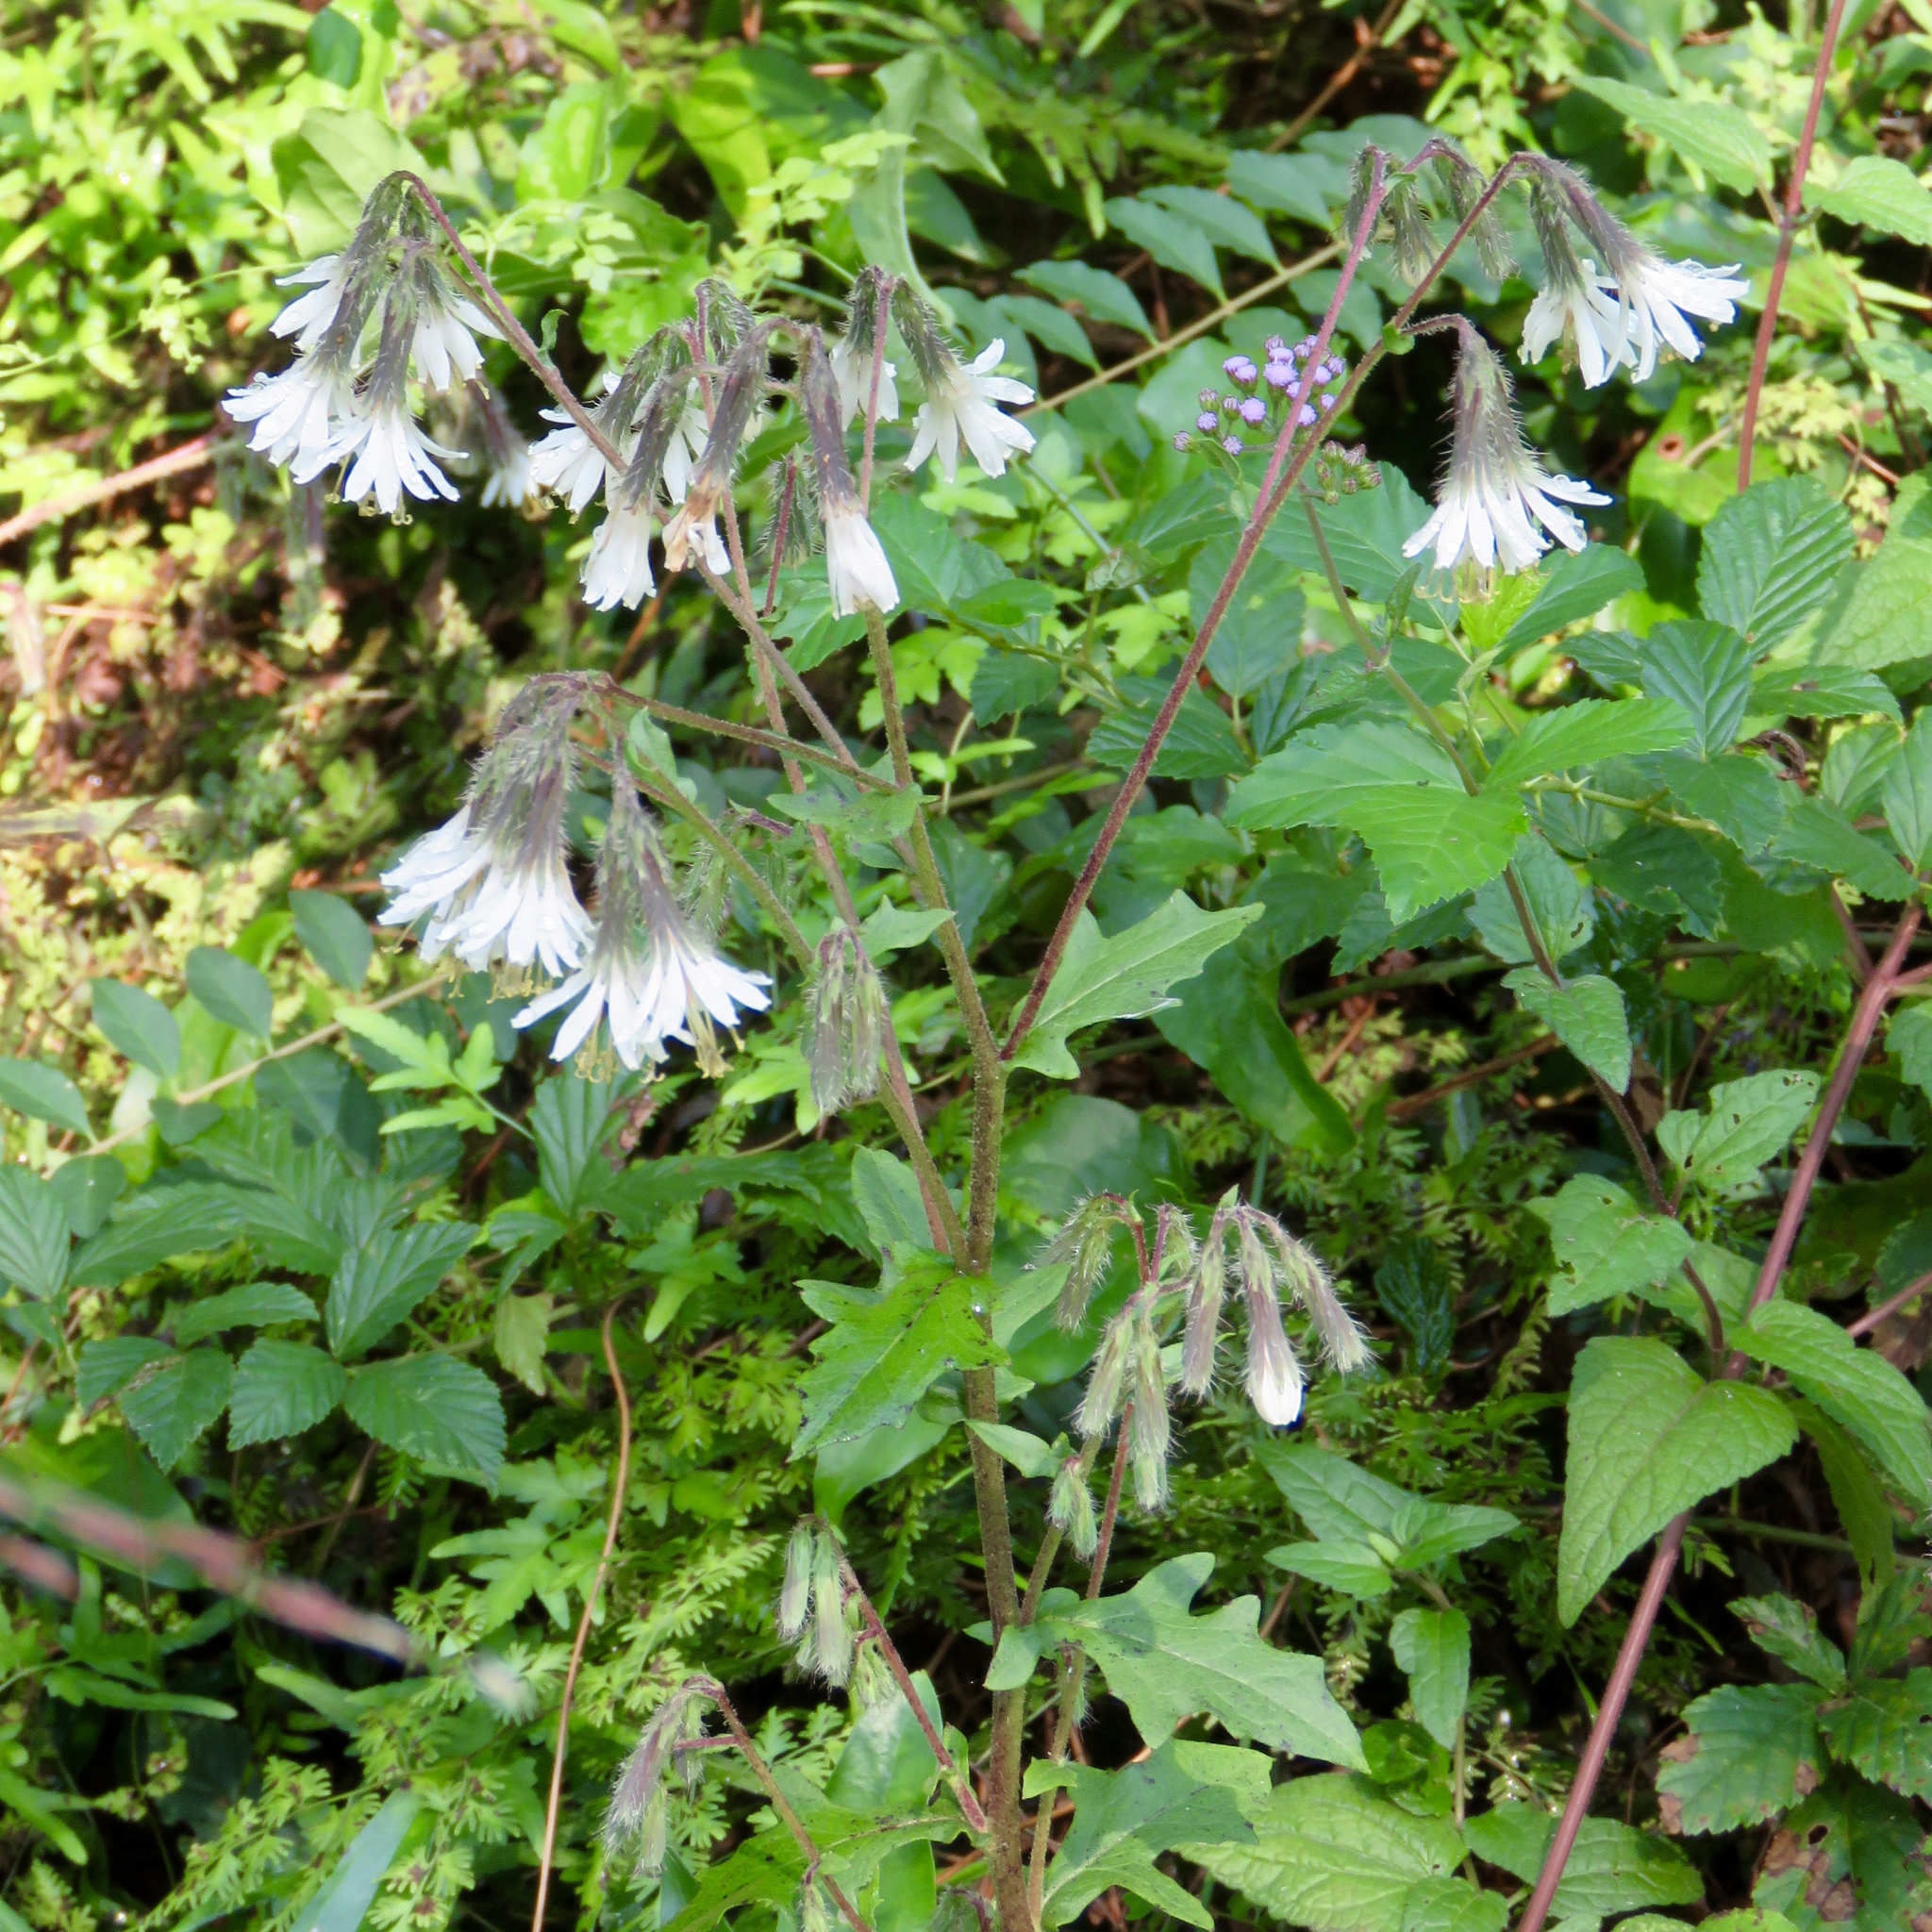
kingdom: Plantae
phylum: Tracheophyta
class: Magnoliopsida
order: Asterales
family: Asteraceae
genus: Nabalus
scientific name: Nabalus barbata
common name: Barbed rattlesnakeroot
